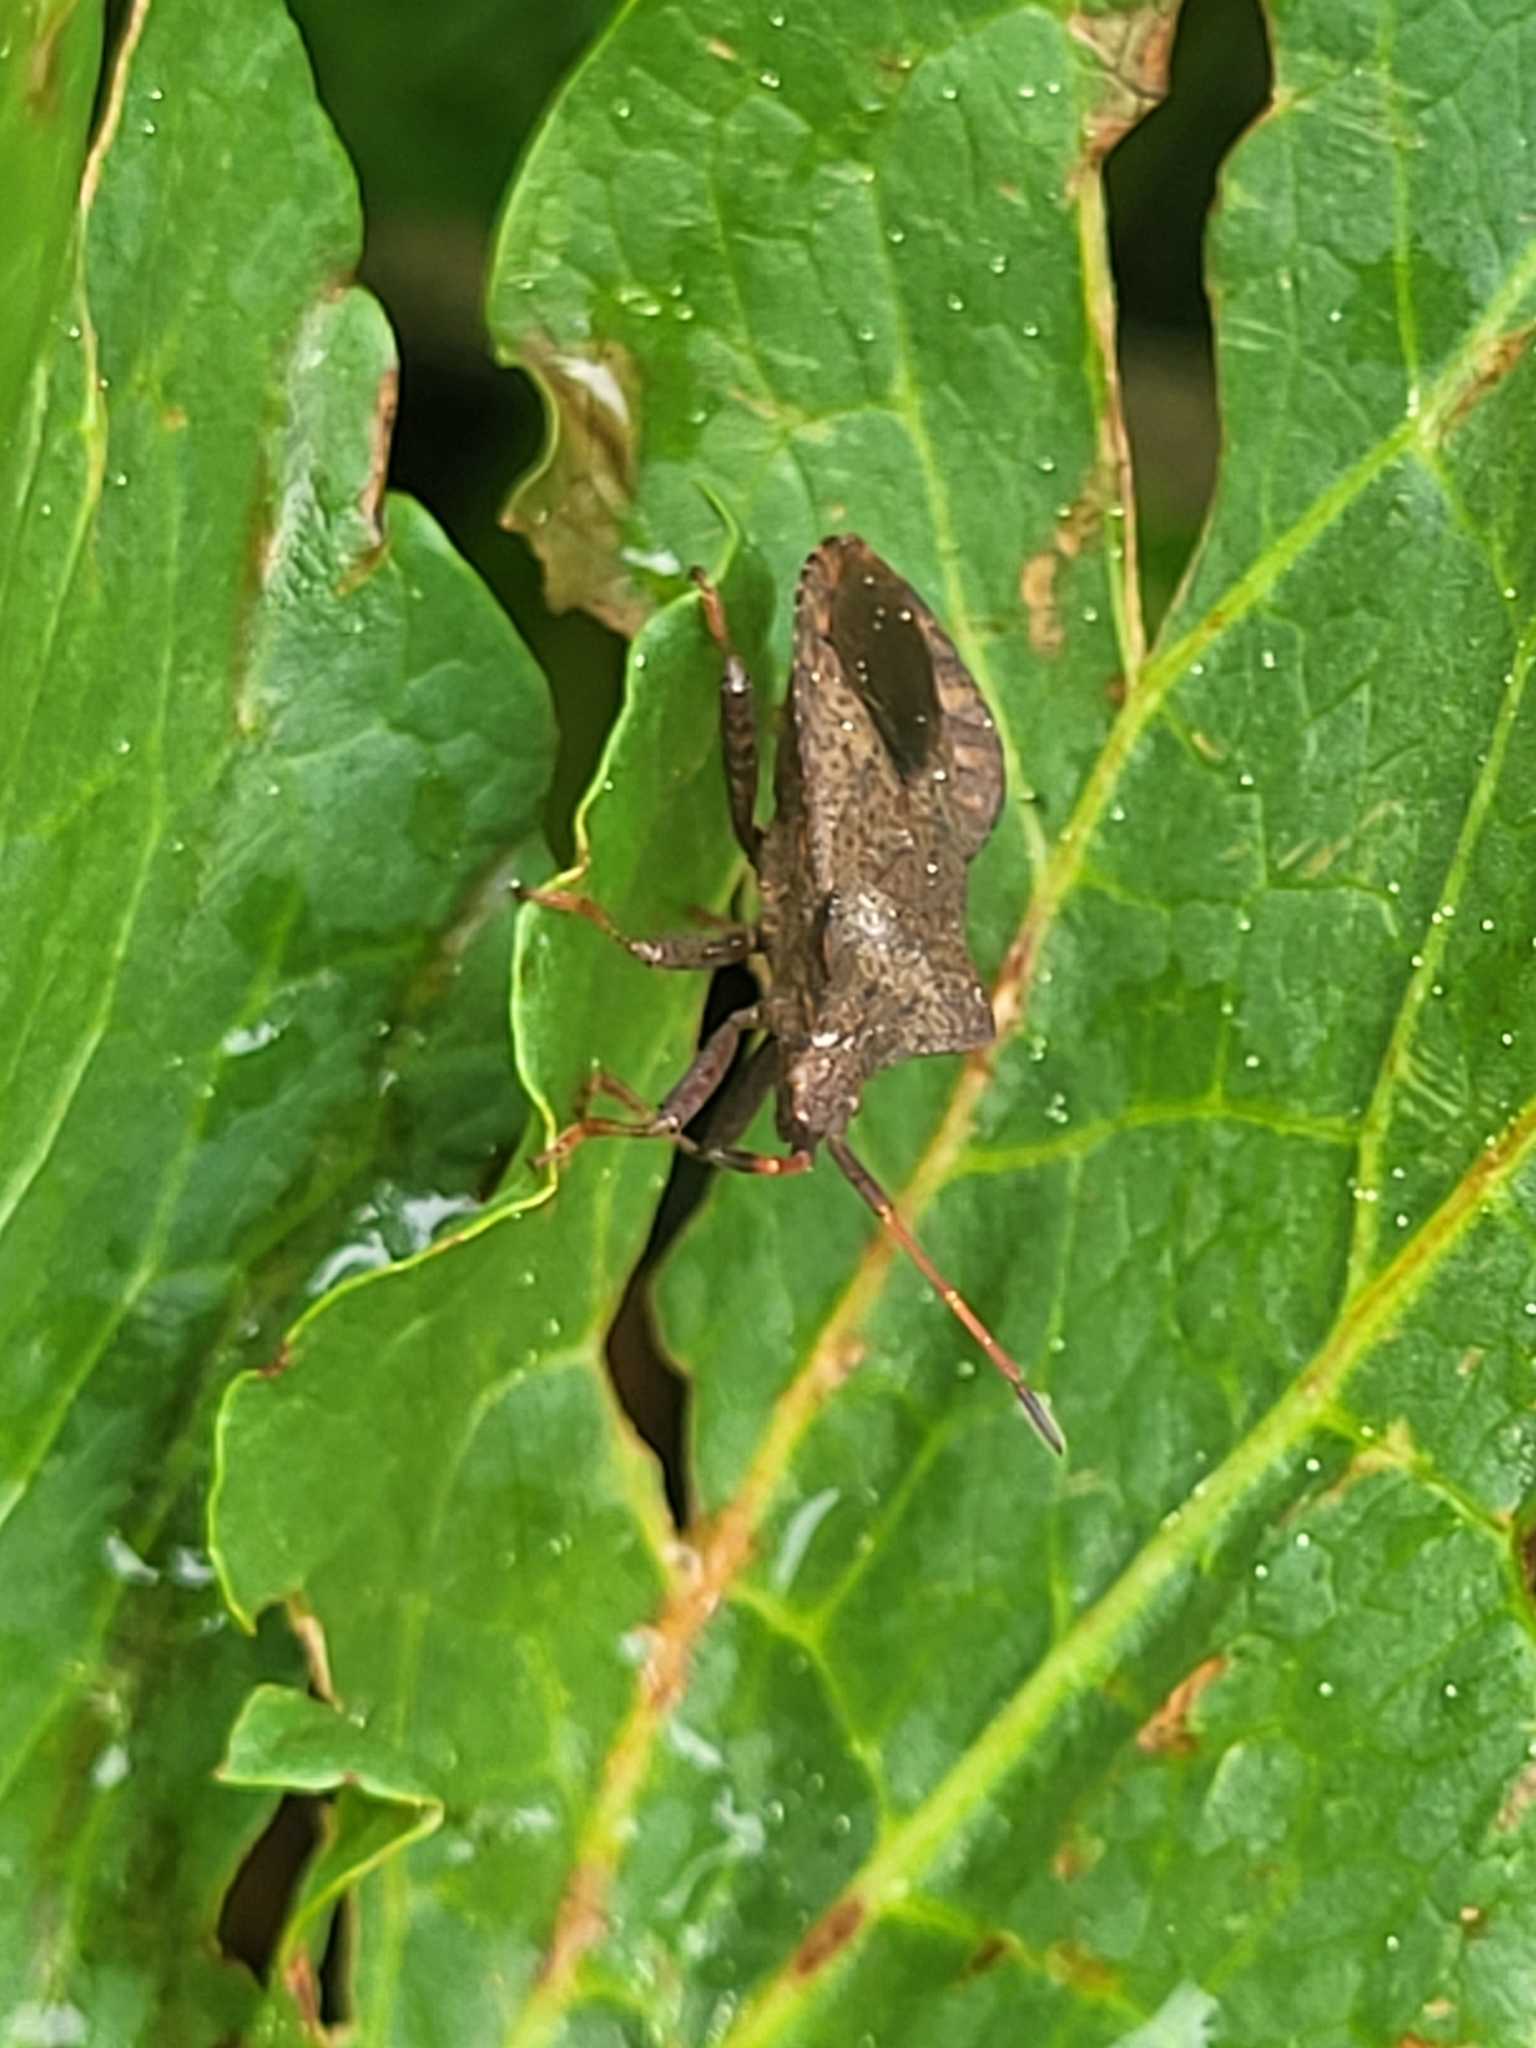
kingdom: Animalia
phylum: Arthropoda
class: Insecta
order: Hemiptera
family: Coreidae
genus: Coreus
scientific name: Coreus marginatus
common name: Dock bug
